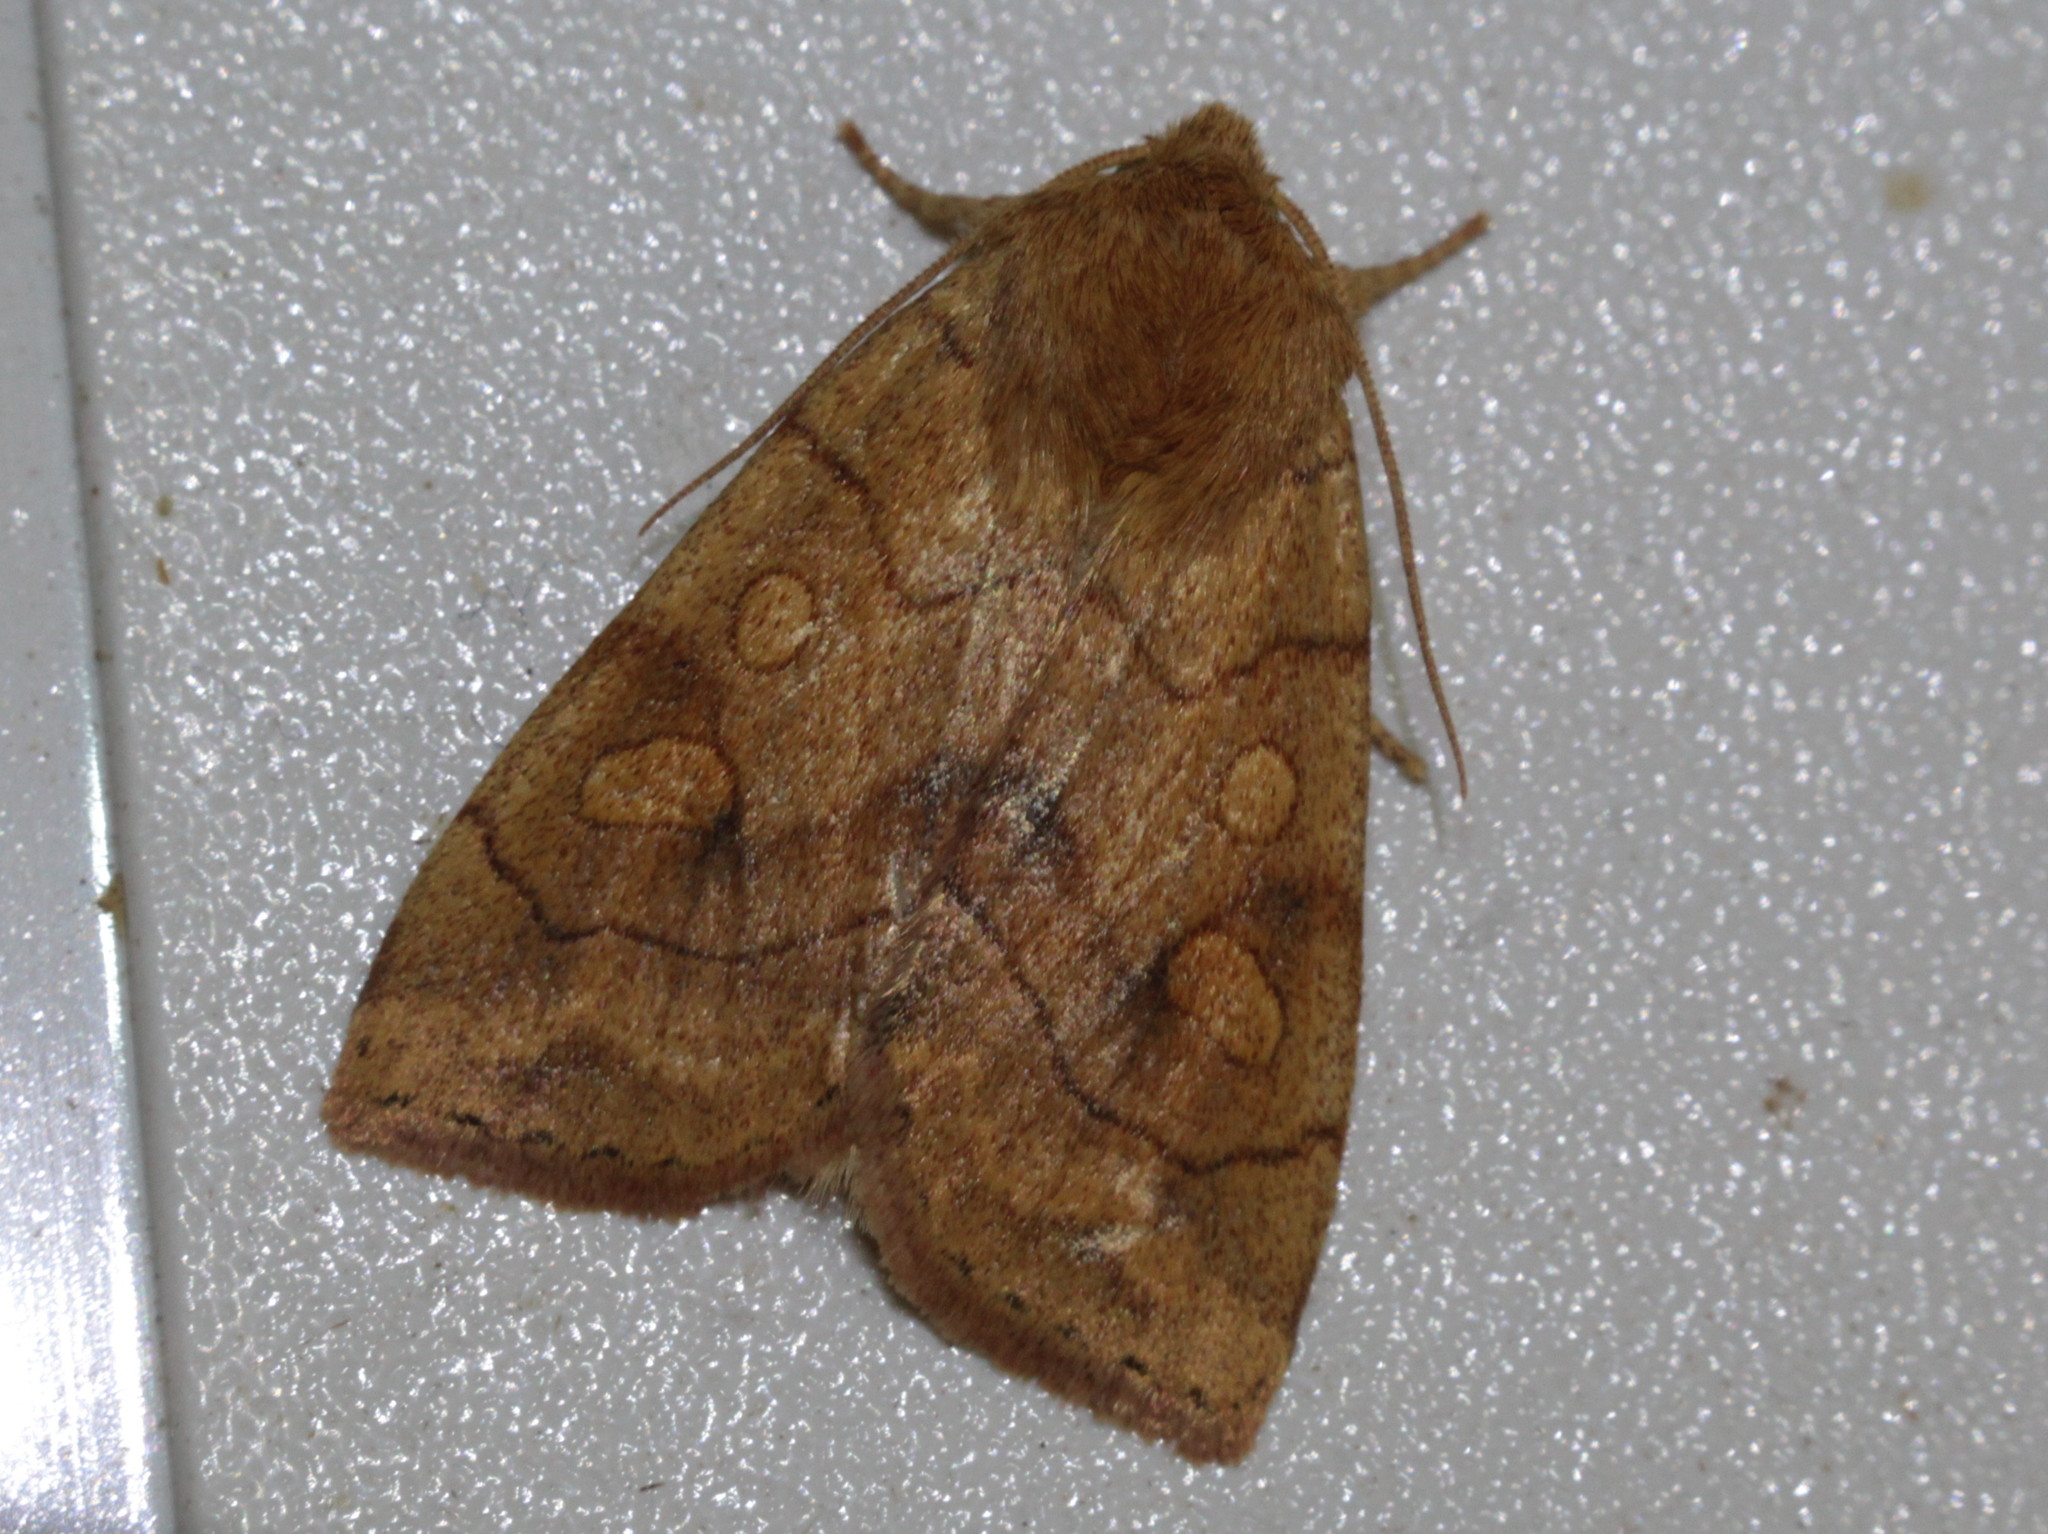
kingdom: Animalia
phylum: Arthropoda
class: Insecta
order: Lepidoptera
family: Noctuidae
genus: Enargia
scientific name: Enargia decolor
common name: Aspen twoleaf tier moth
